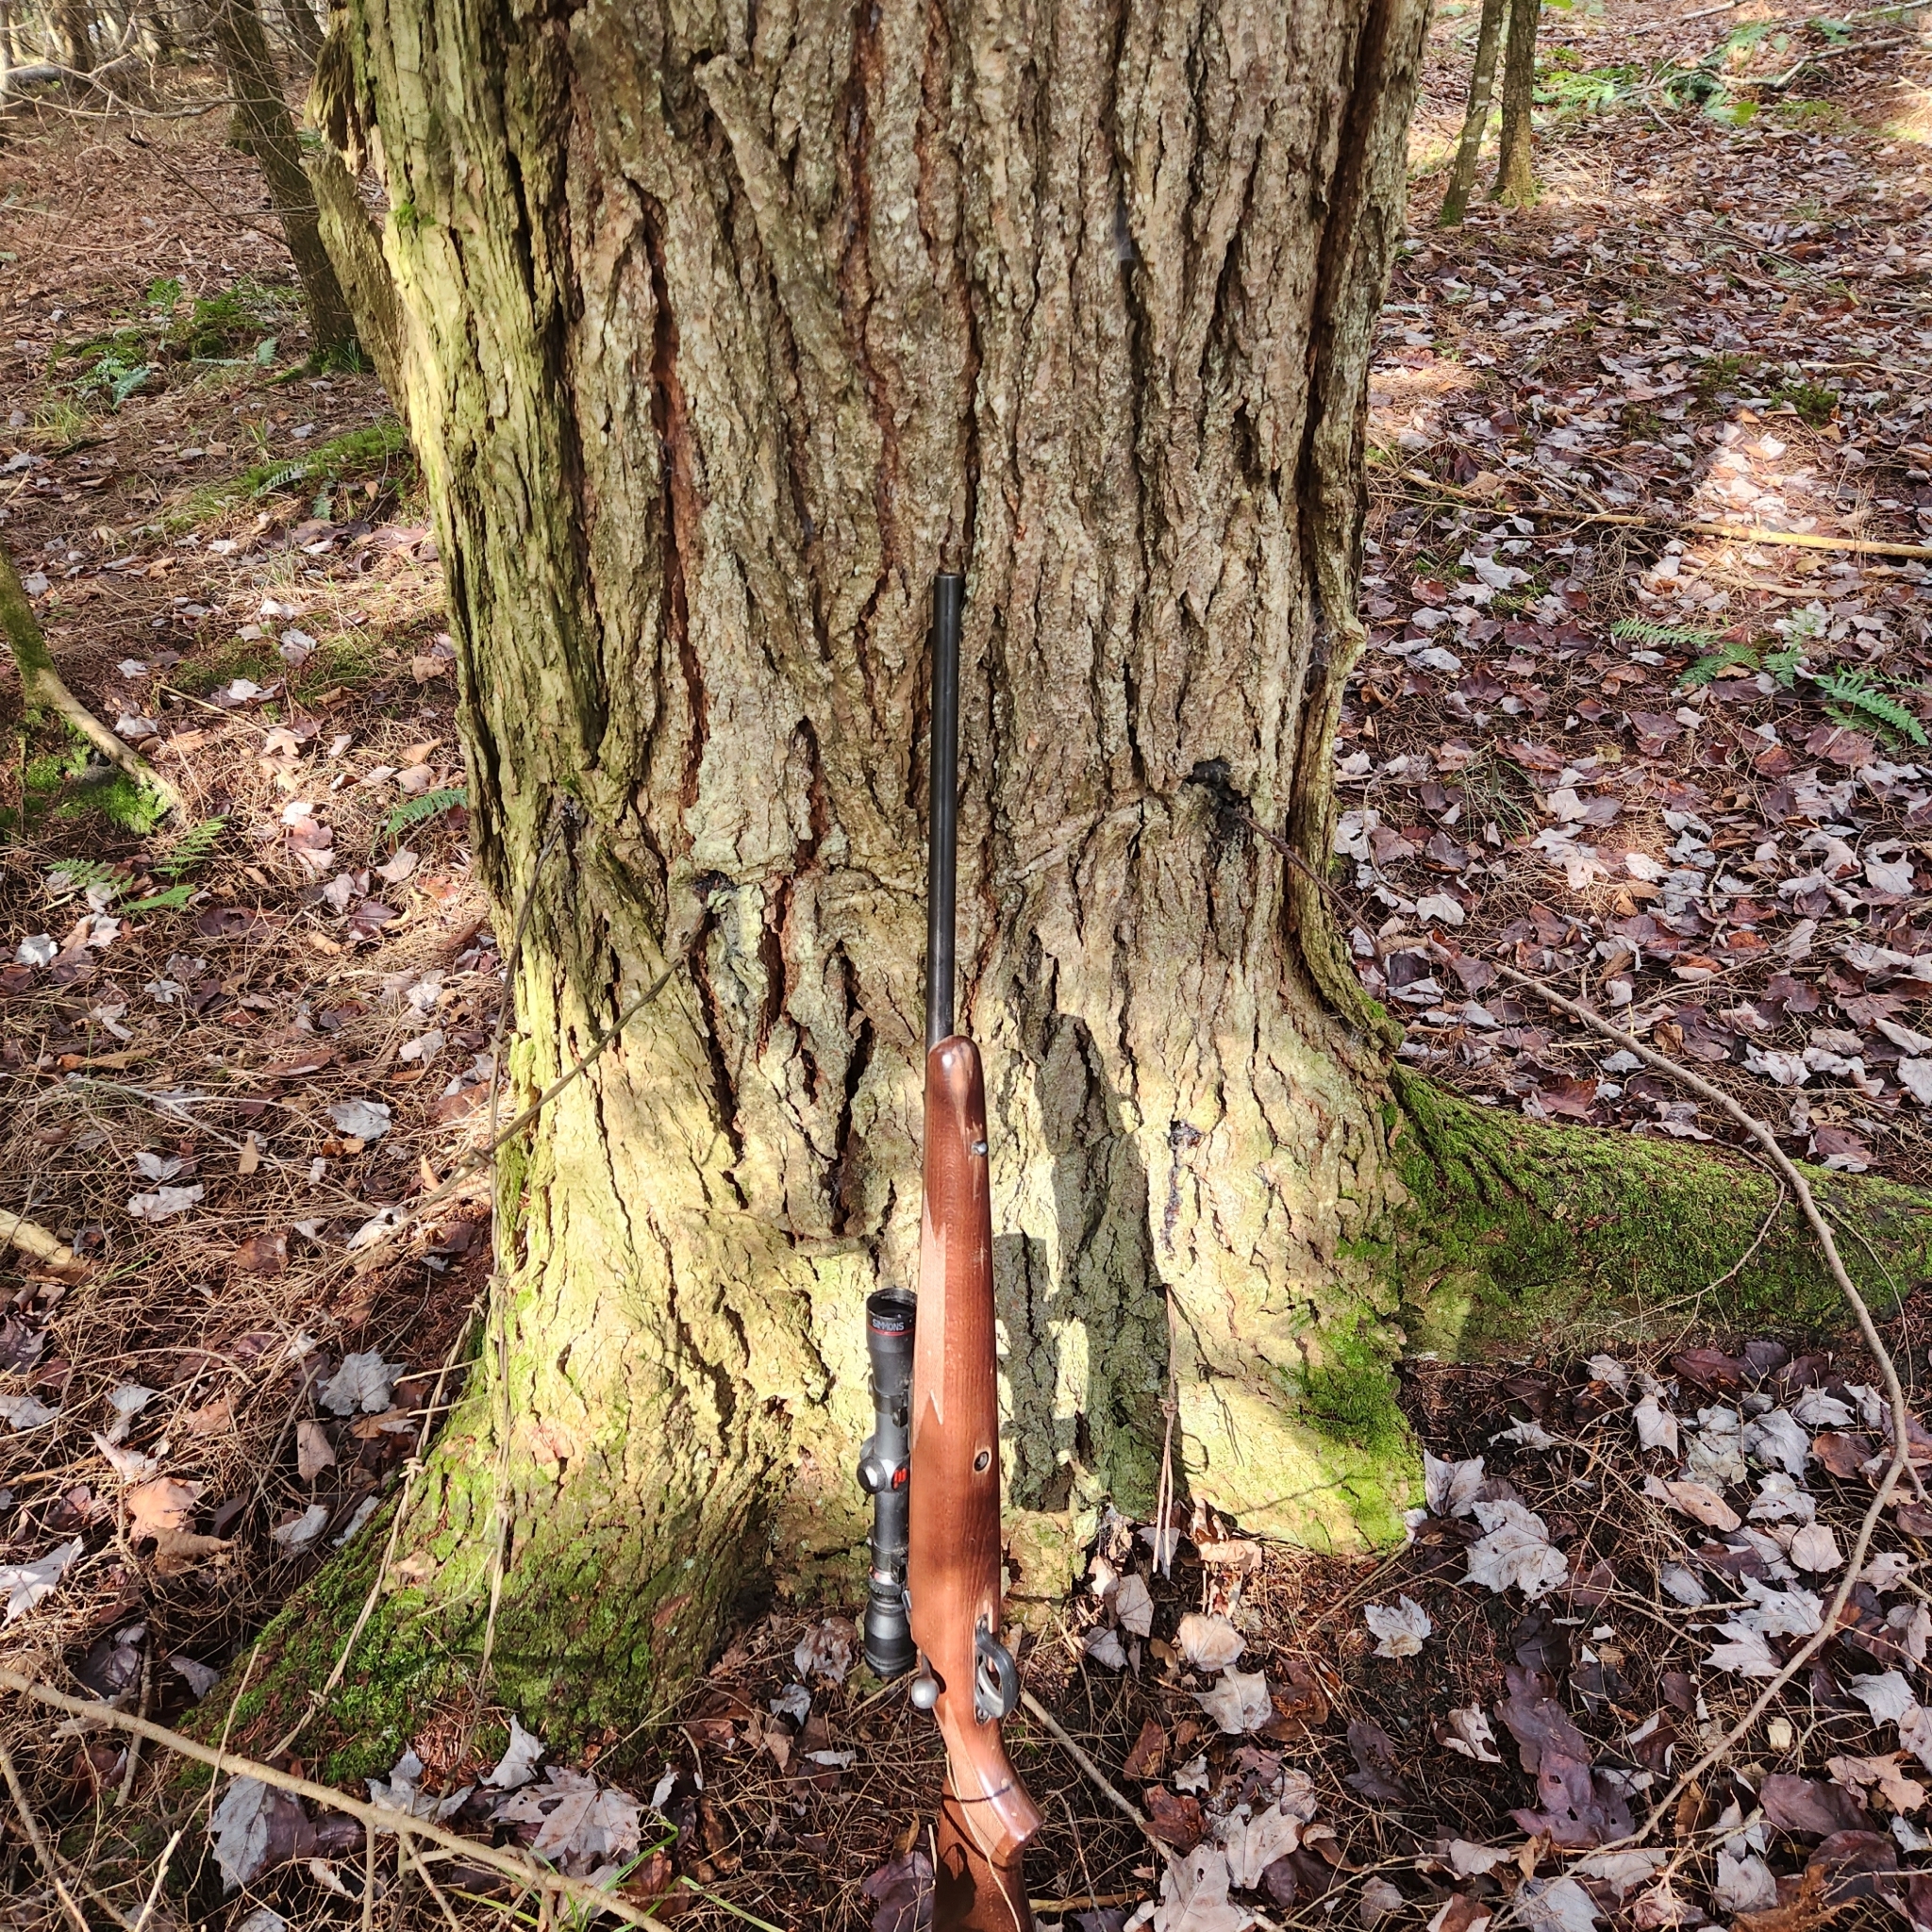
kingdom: Plantae
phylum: Tracheophyta
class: Pinopsida
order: Pinales
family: Pinaceae
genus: Tsuga
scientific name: Tsuga canadensis
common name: Eastern hemlock
